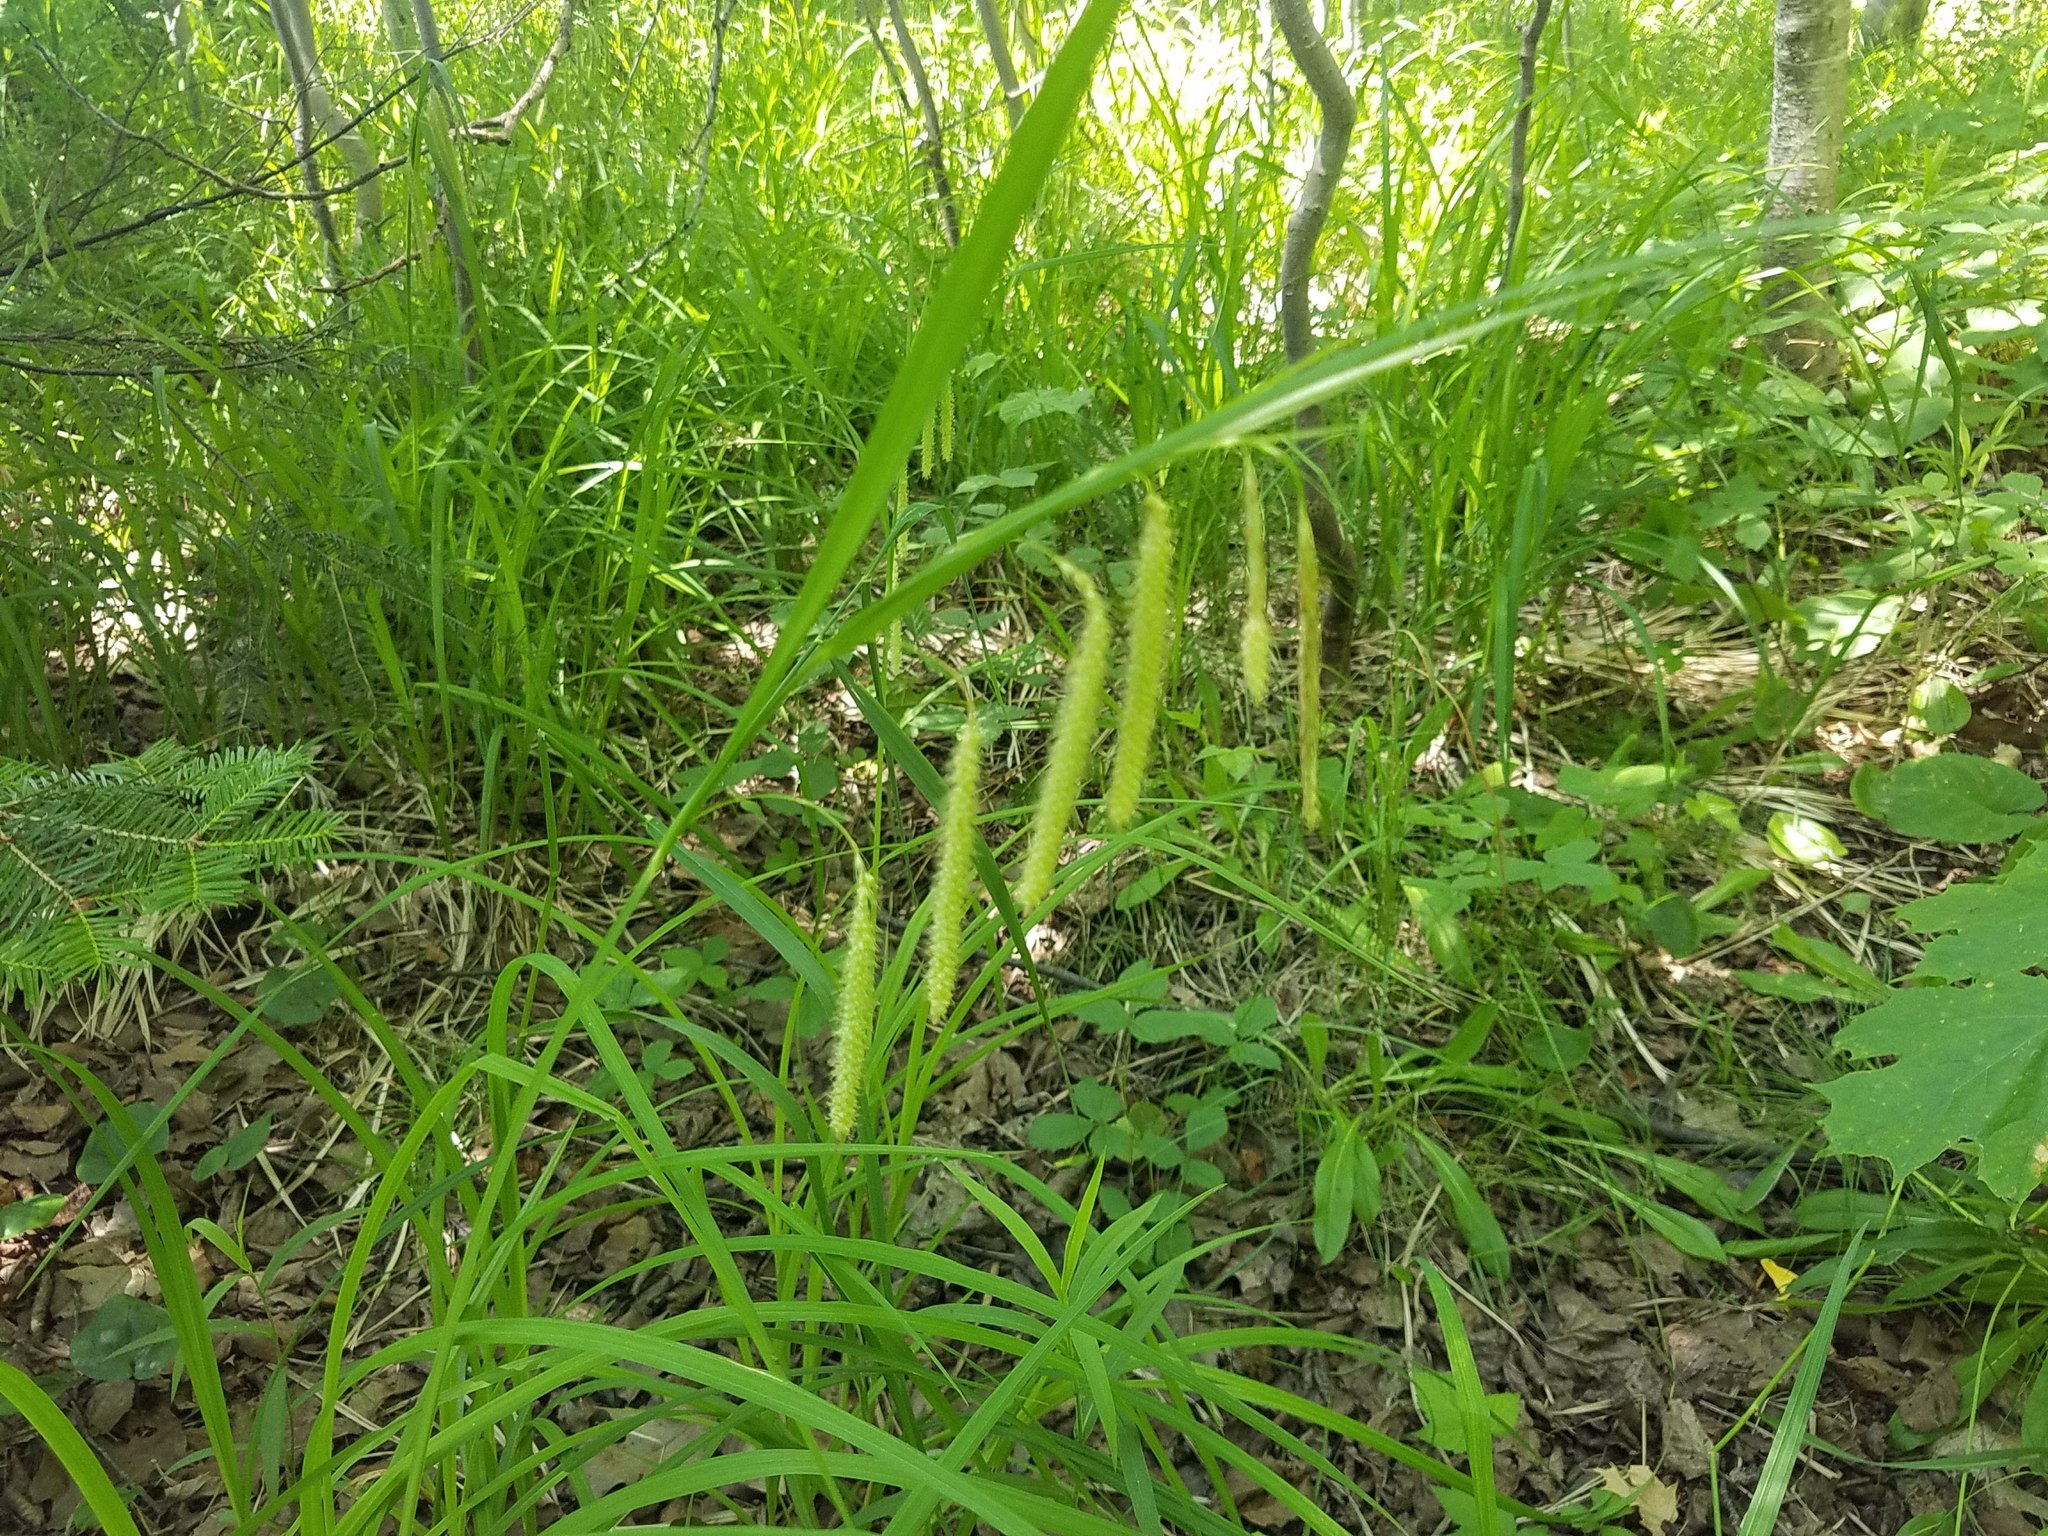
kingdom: Plantae
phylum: Tracheophyta
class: Liliopsida
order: Poales
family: Cyperaceae
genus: Carex
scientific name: Carex crinita
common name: Fringed sedge
